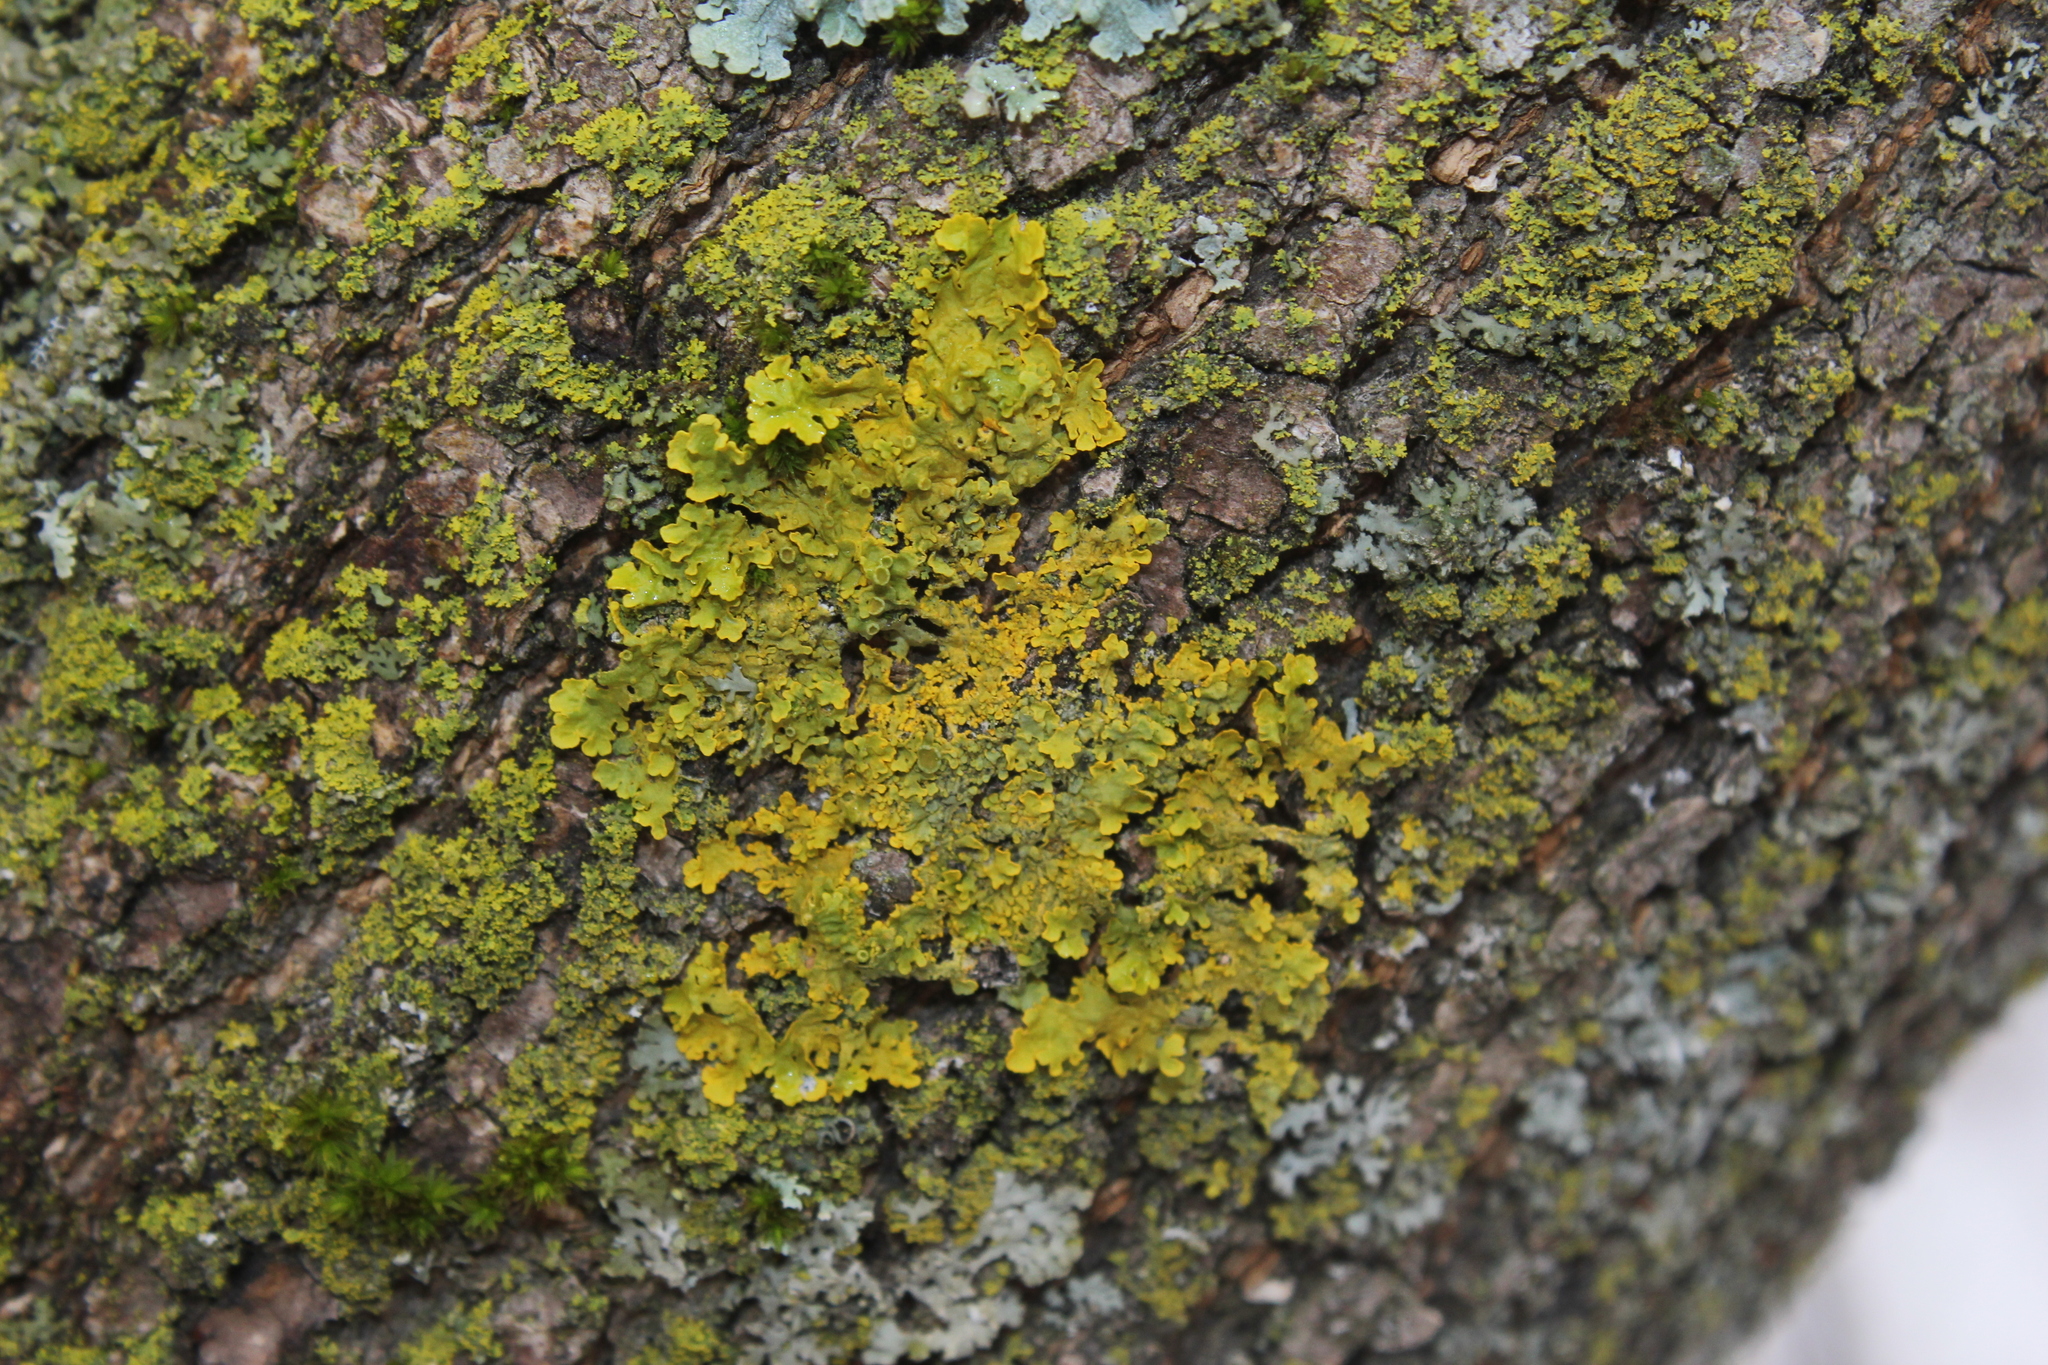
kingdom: Fungi
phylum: Ascomycota
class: Lecanoromycetes
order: Teloschistales
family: Teloschistaceae
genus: Xanthoria
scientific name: Xanthoria parietina
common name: Common orange lichen
